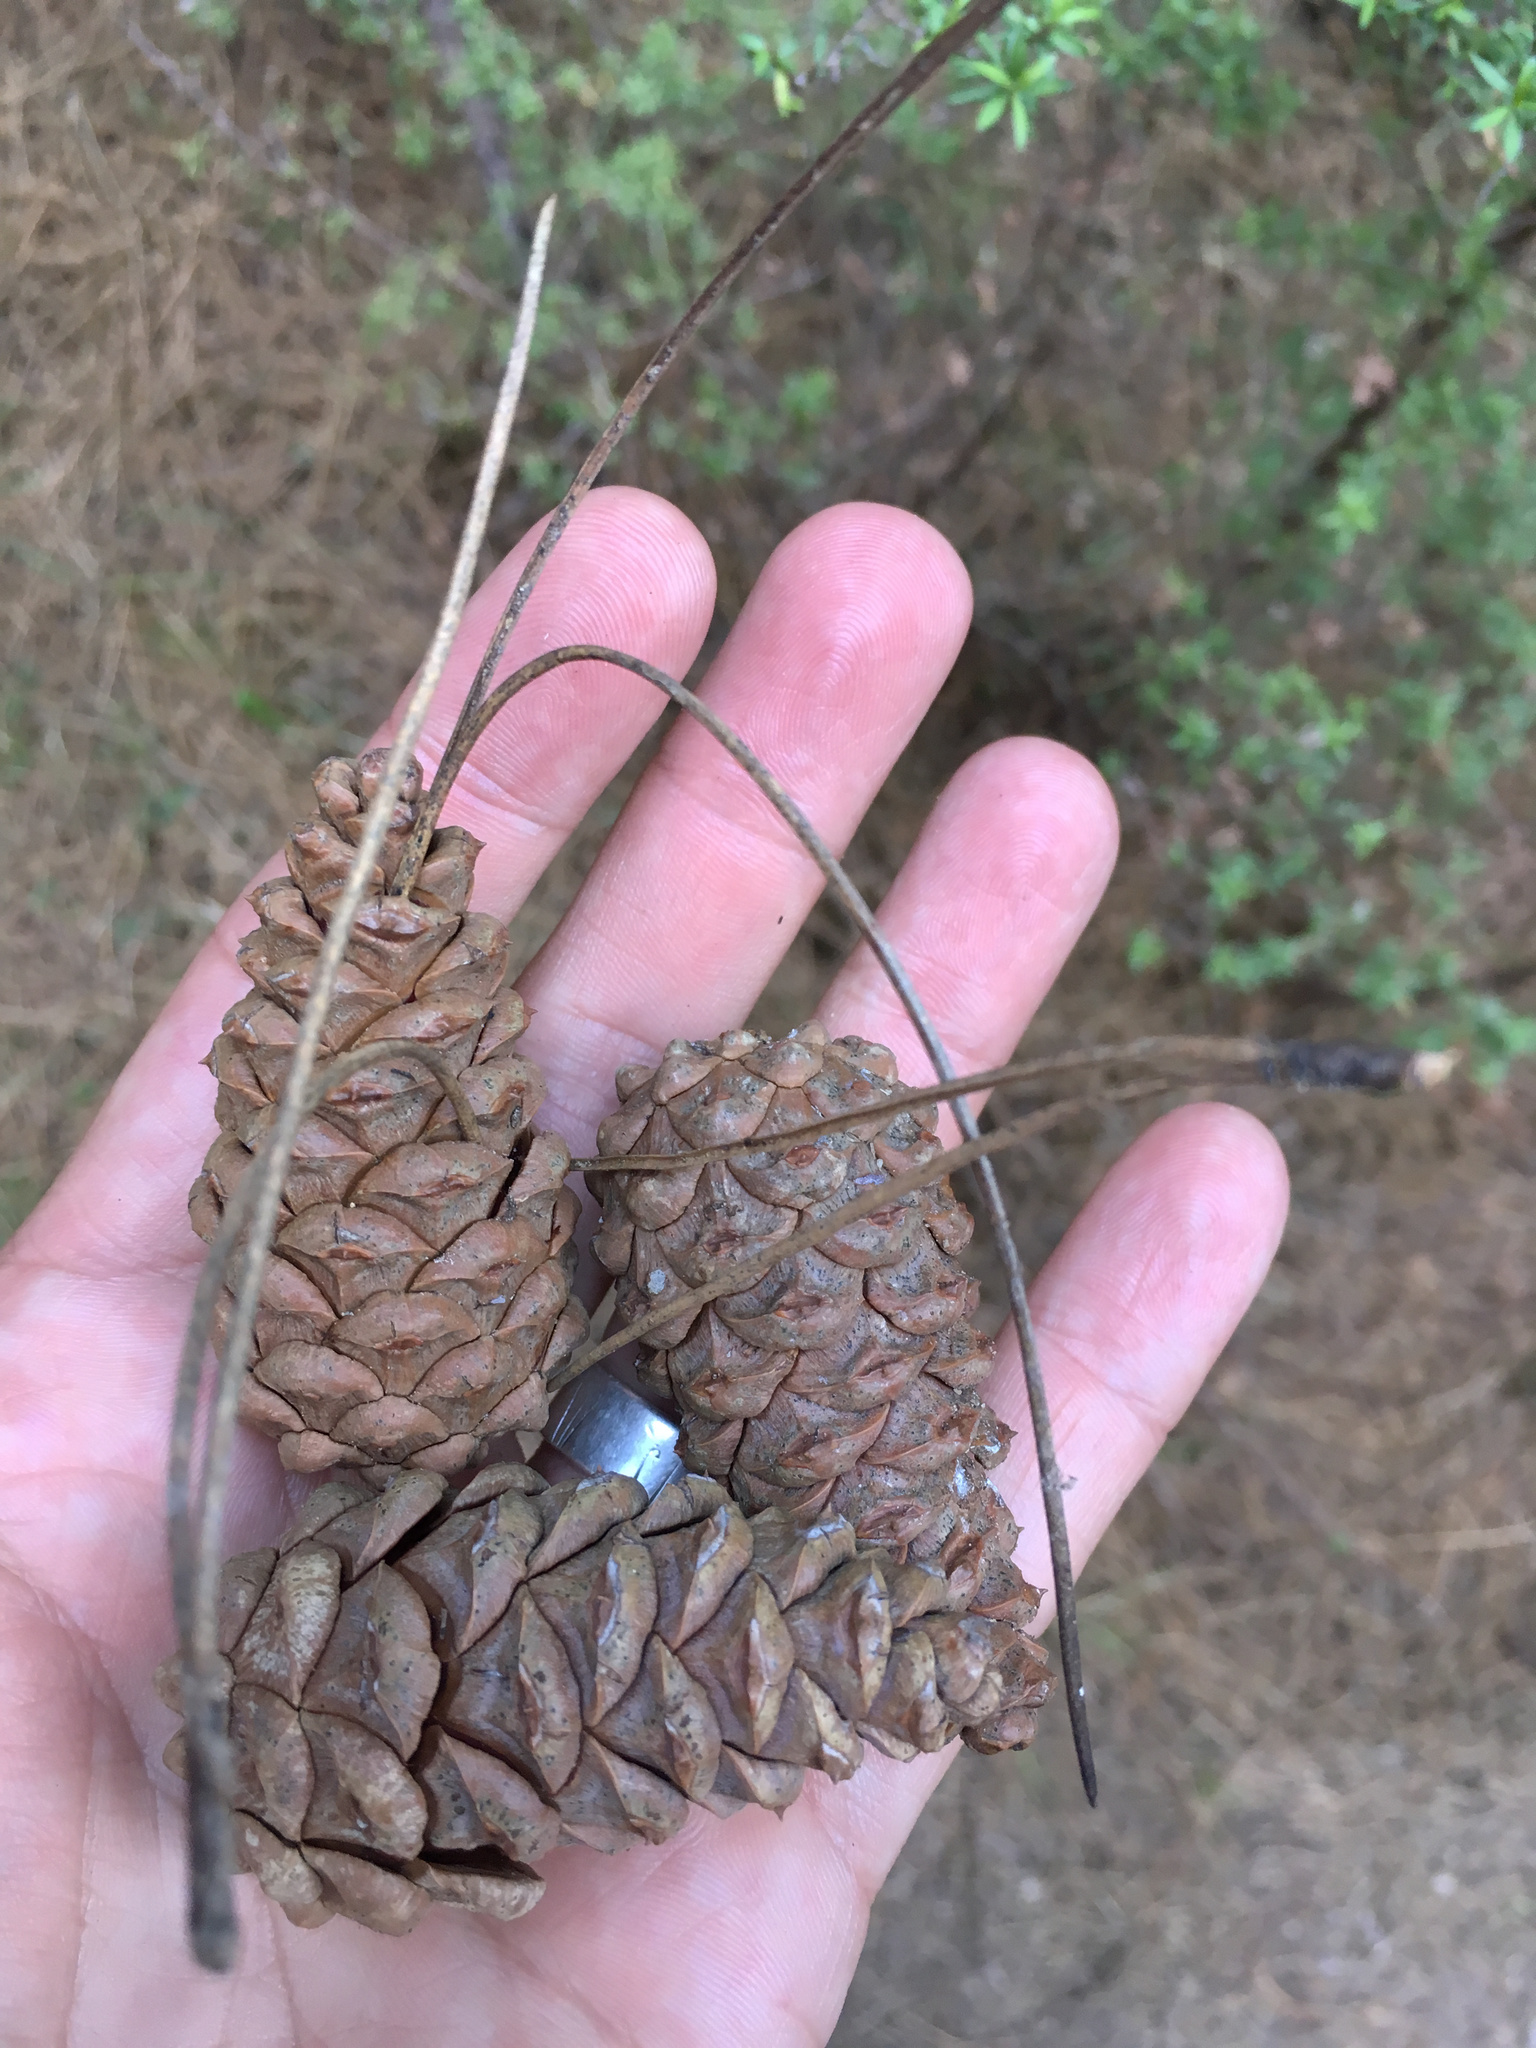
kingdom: Plantae
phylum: Tracheophyta
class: Pinopsida
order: Pinales
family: Pinaceae
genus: Pinus
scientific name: Pinus nigra
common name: Austrian pine
